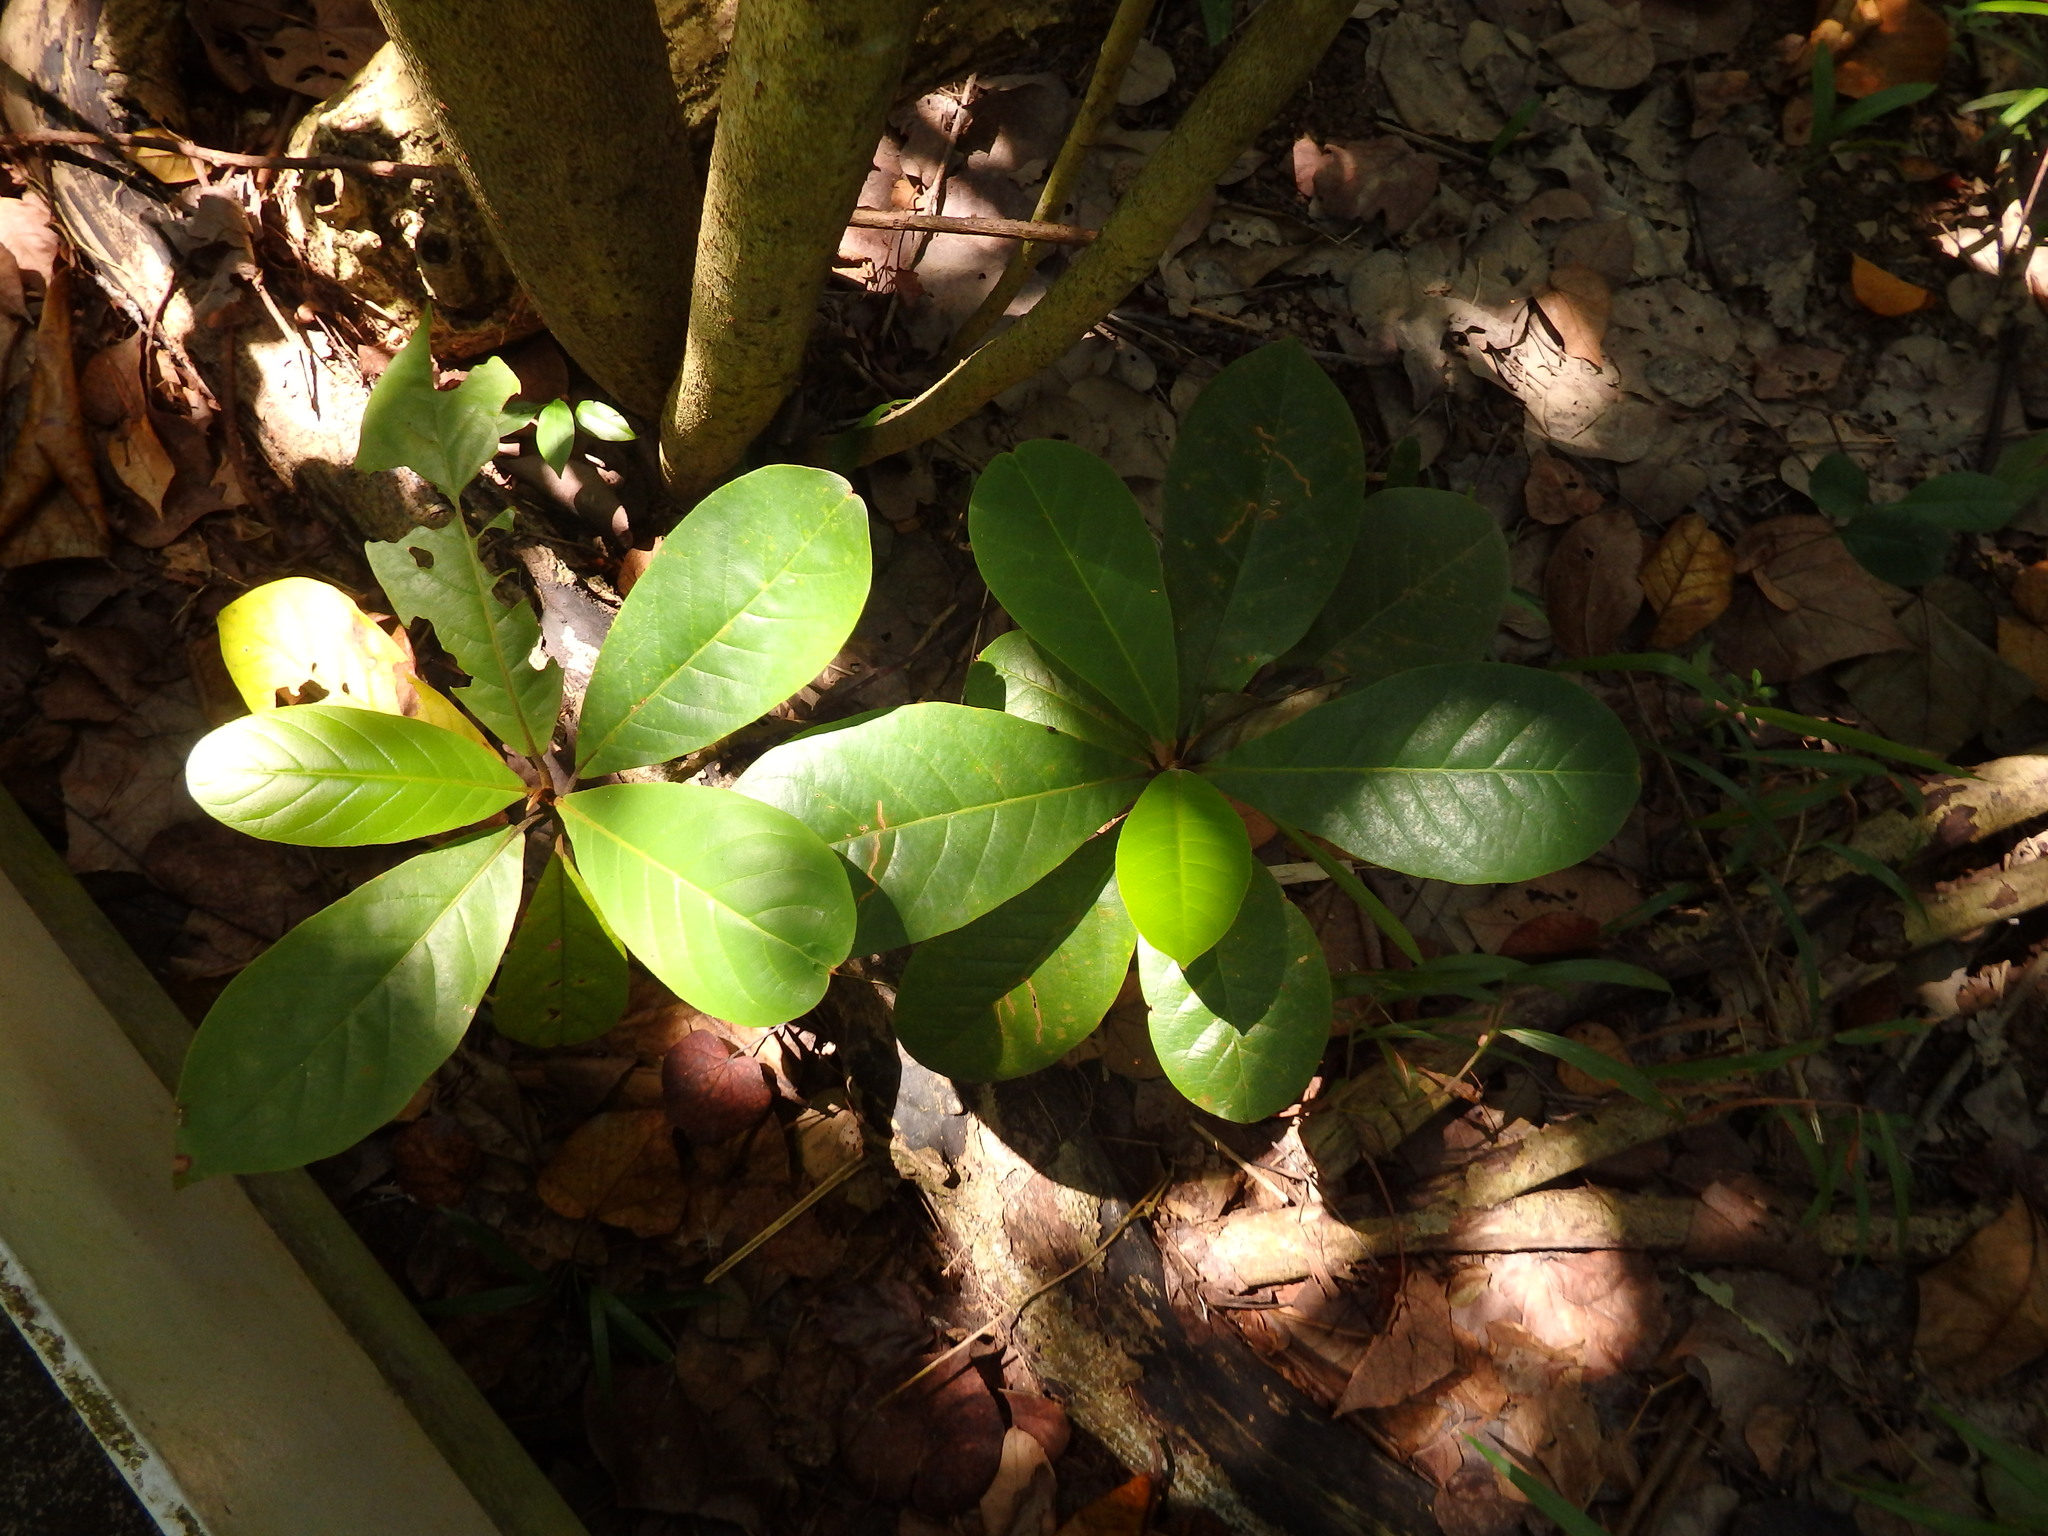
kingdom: Plantae
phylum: Tracheophyta
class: Magnoliopsida
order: Myrtales
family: Combretaceae
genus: Terminalia
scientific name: Terminalia catappa
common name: Tropical almond
